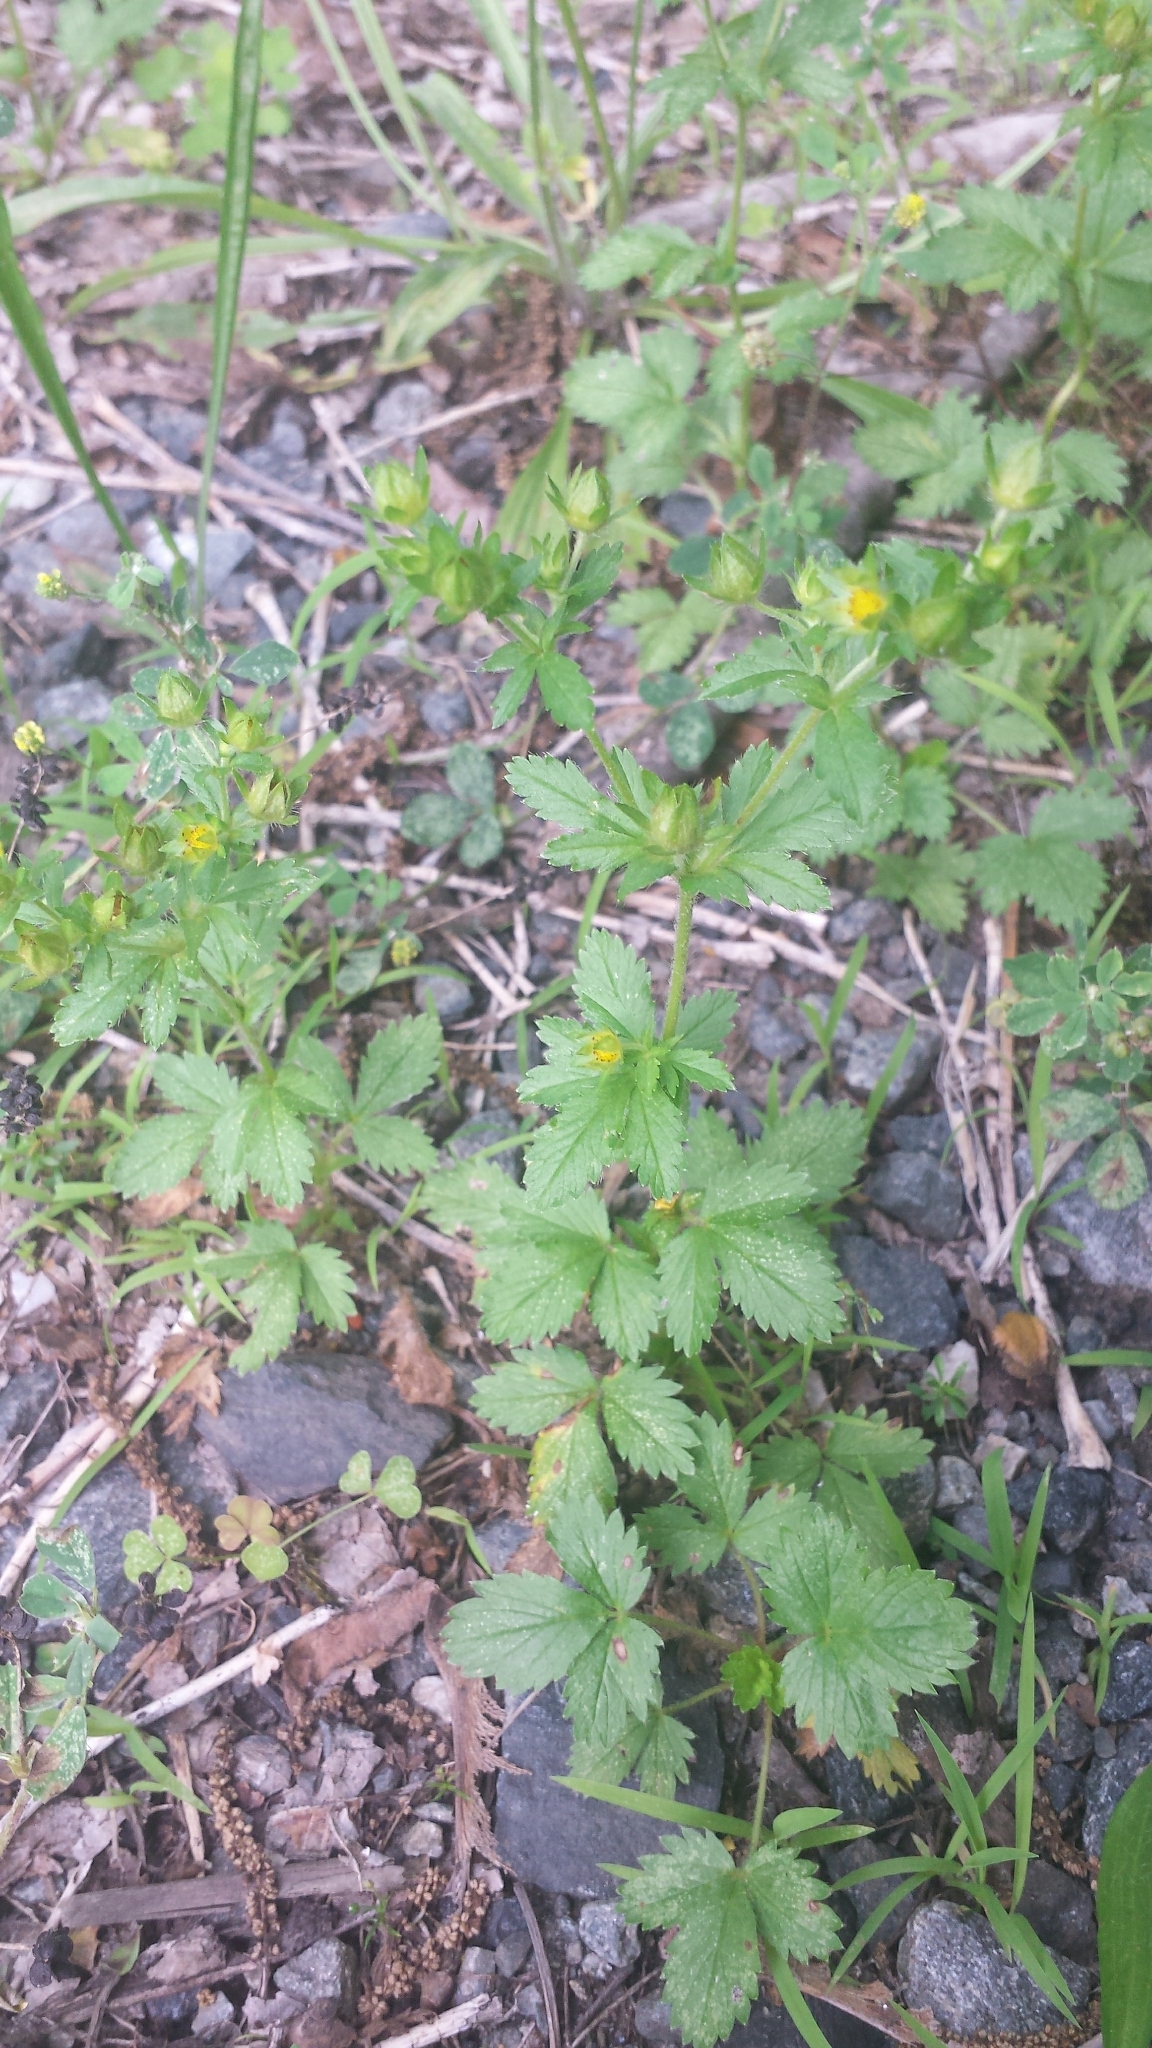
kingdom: Plantae
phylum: Tracheophyta
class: Magnoliopsida
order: Rosales
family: Rosaceae
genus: Potentilla
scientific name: Potentilla norvegica
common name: Ternate-leaved cinquefoil
